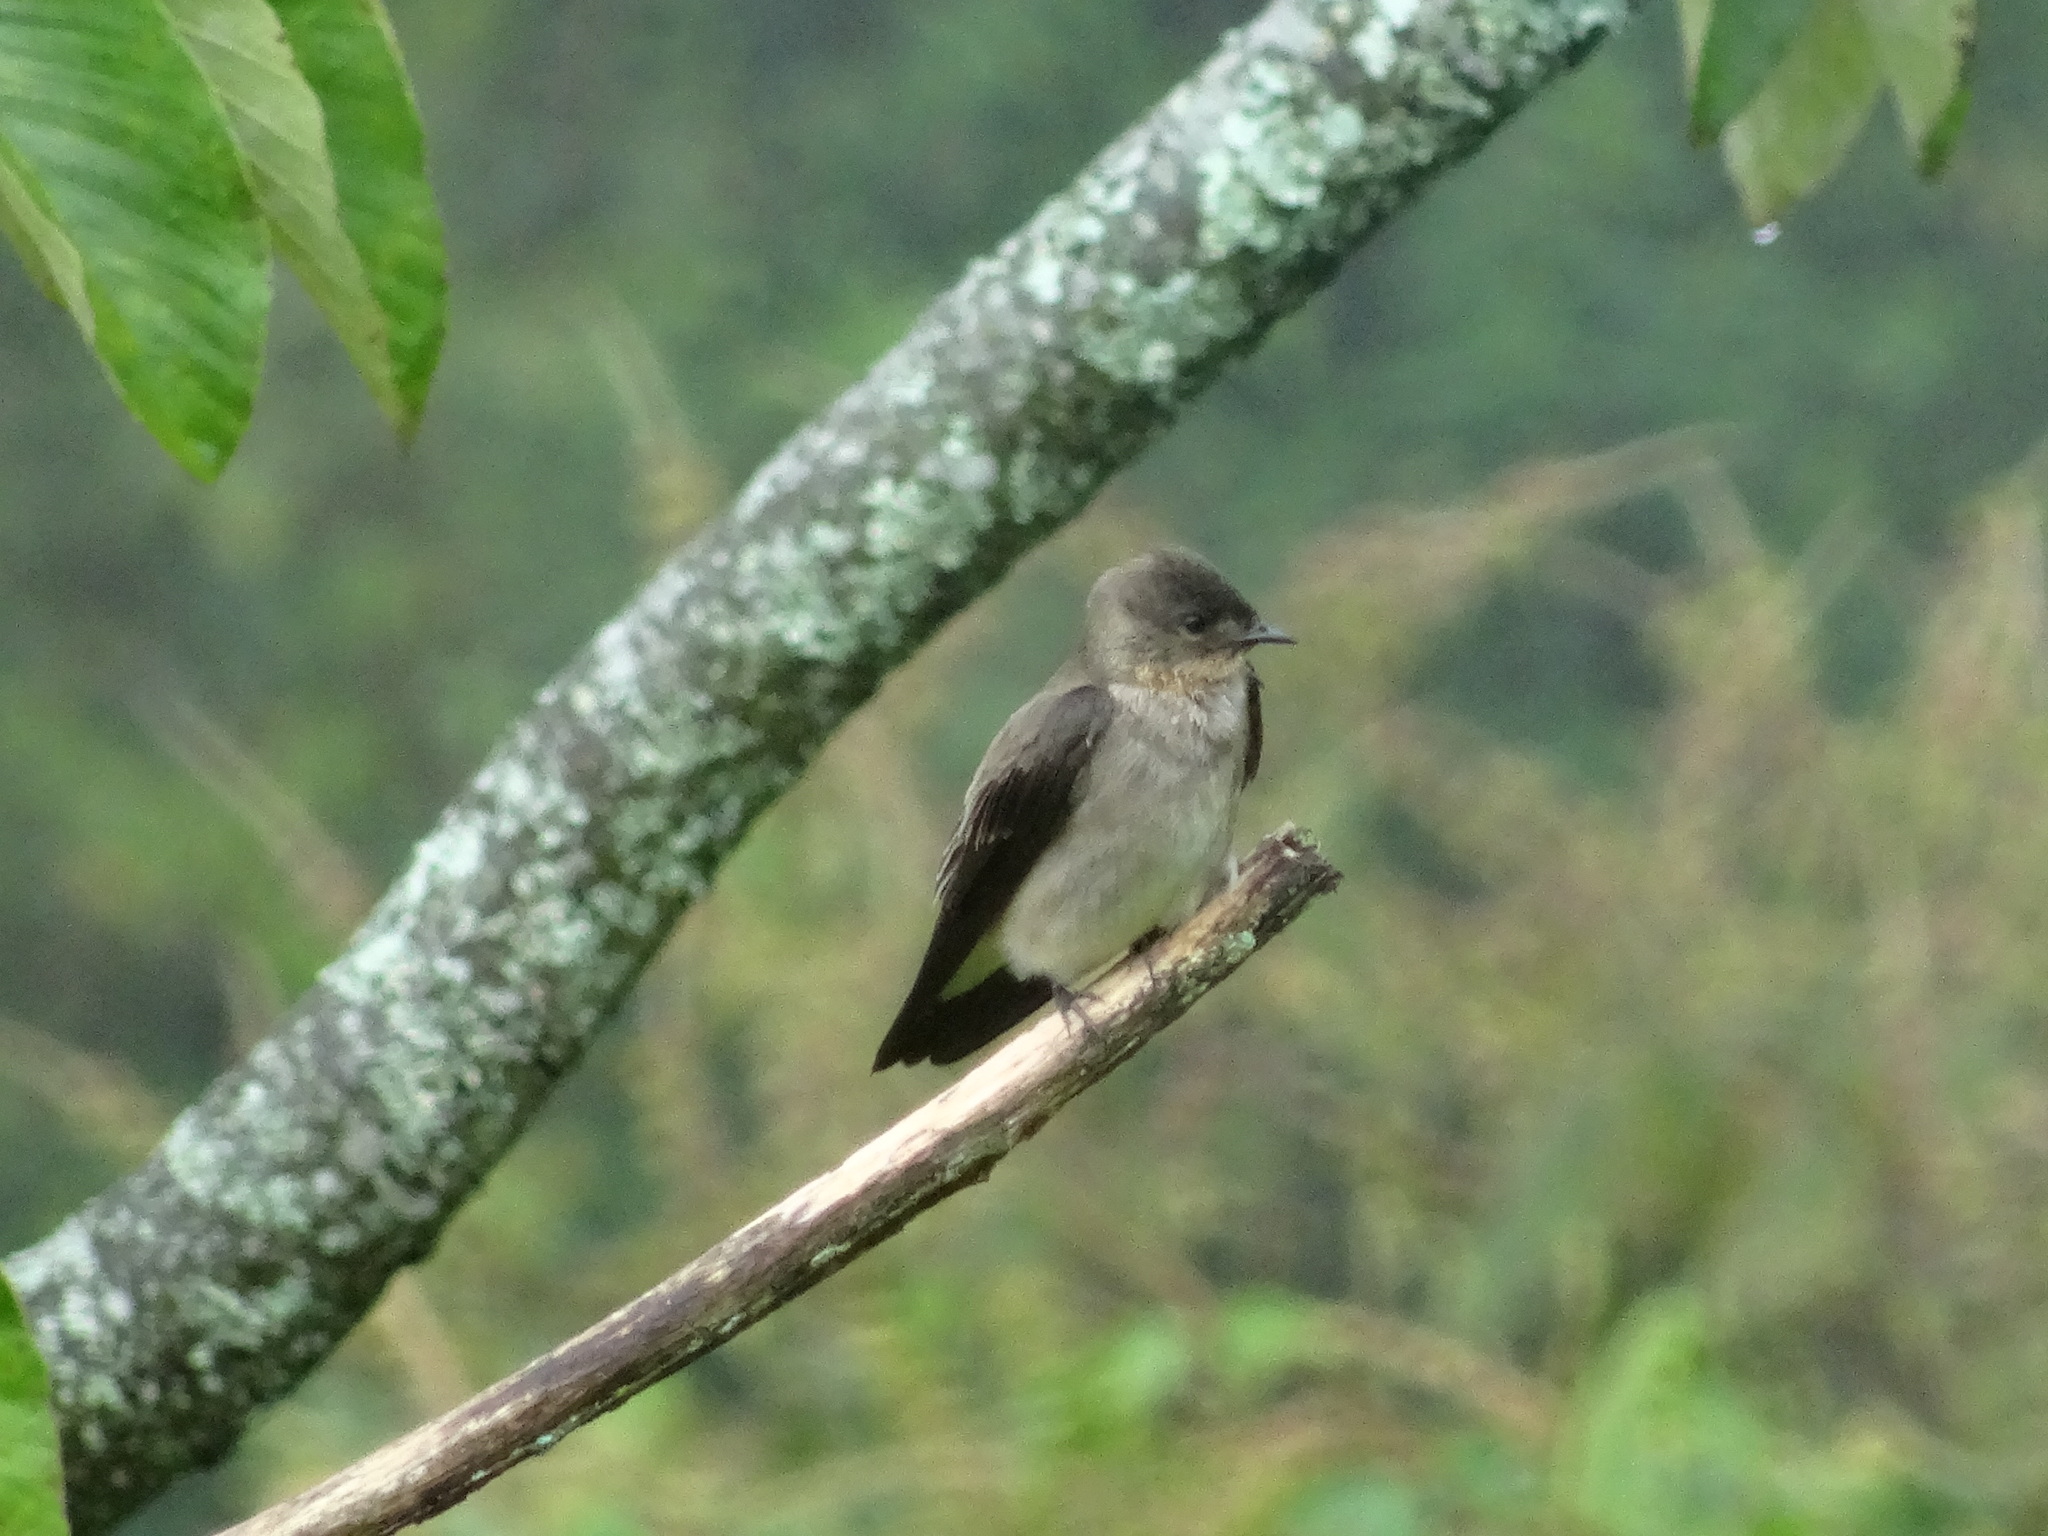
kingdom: Animalia
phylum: Chordata
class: Aves
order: Passeriformes
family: Hirundinidae
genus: Stelgidopteryx
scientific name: Stelgidopteryx ruficollis
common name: Southern rough-winged swallow
